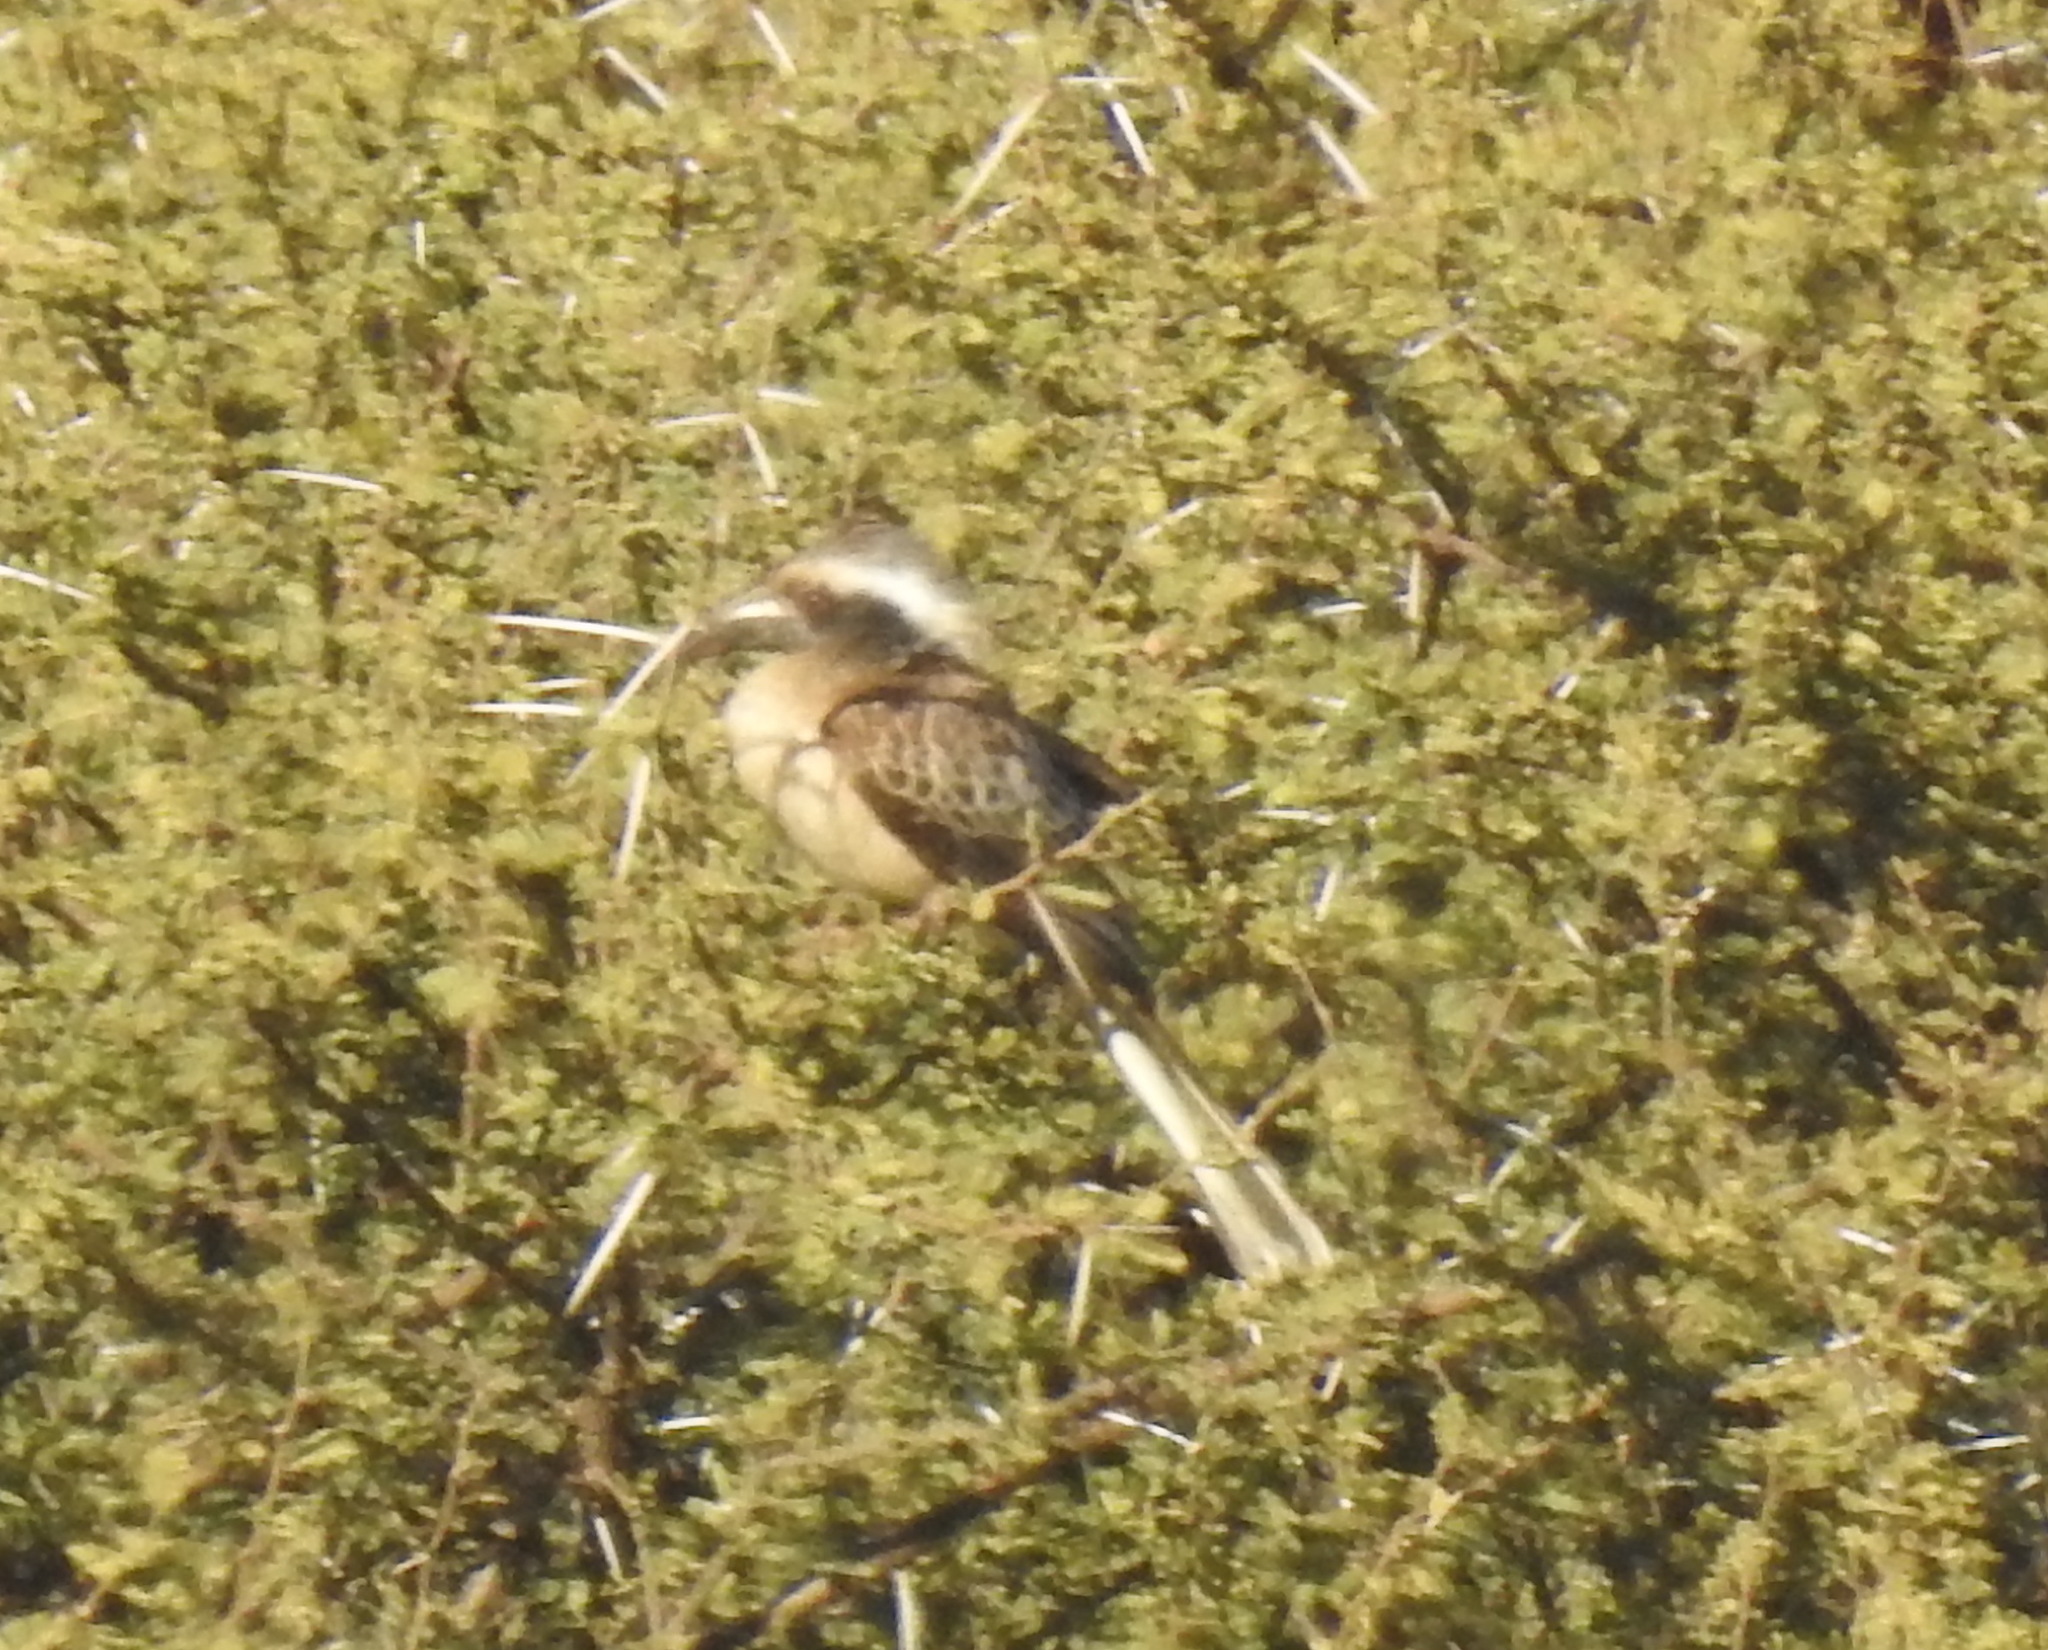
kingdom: Animalia
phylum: Chordata
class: Aves
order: Bucerotiformes
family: Bucerotidae
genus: Lophoceros
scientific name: Lophoceros nasutus
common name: African grey hornbill
